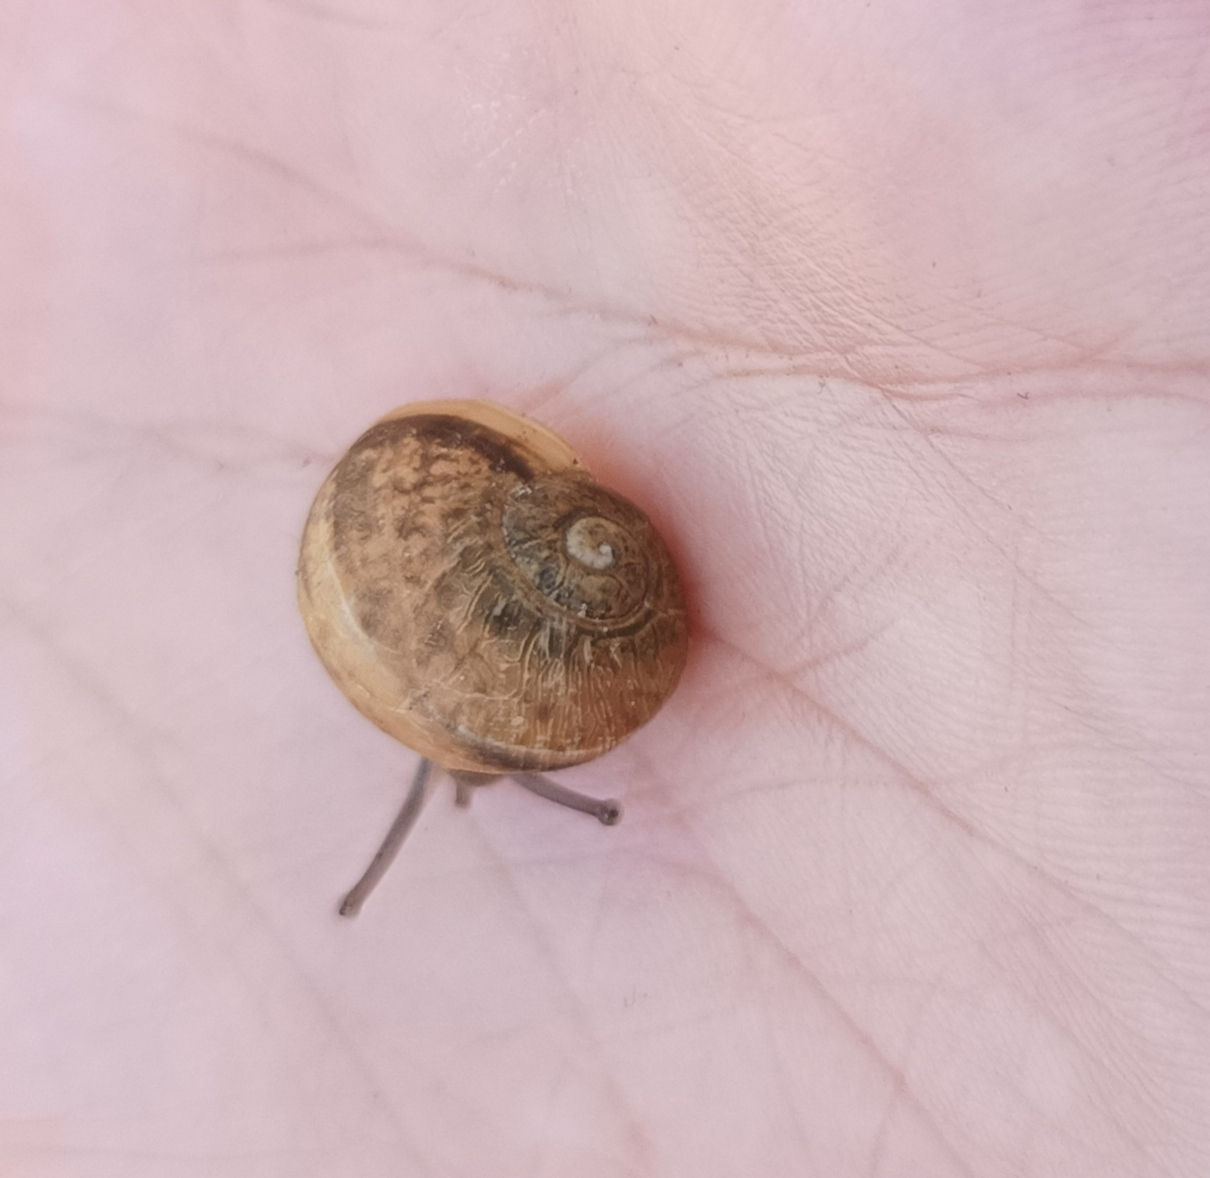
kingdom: Animalia
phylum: Mollusca
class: Gastropoda
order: Stylommatophora
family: Helicidae
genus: Cornu
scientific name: Cornu aspersum
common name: Brown garden snail
